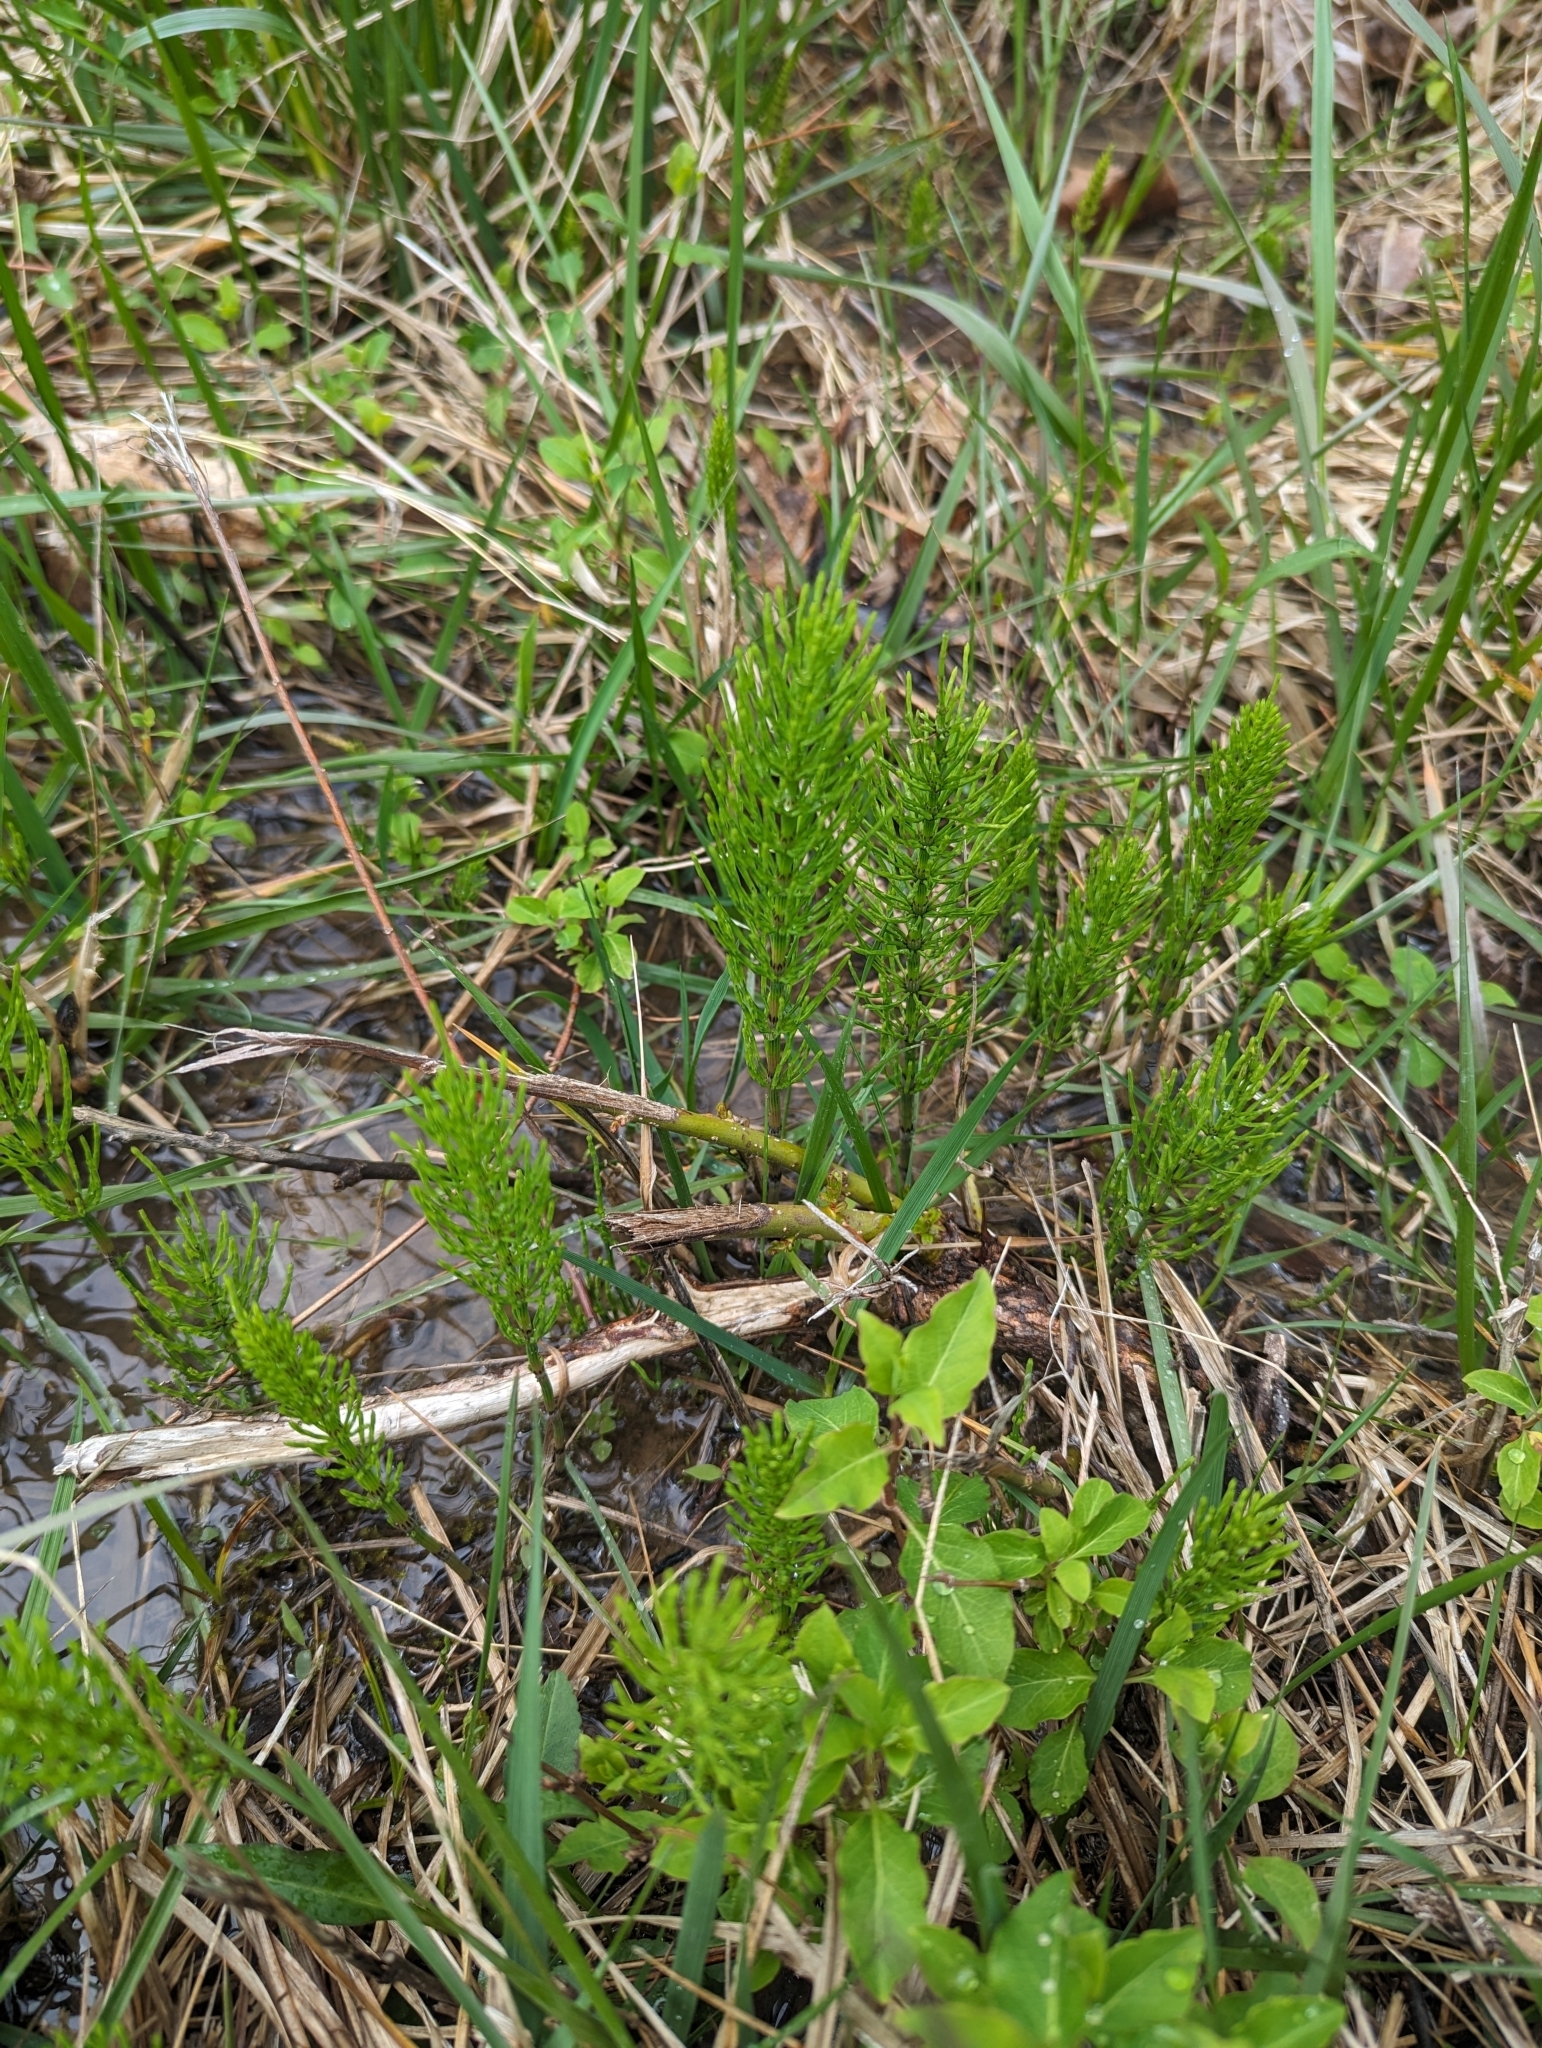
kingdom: Plantae
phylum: Tracheophyta
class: Polypodiopsida
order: Equisetales
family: Equisetaceae
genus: Equisetum
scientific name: Equisetum arvense
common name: Field horsetail
